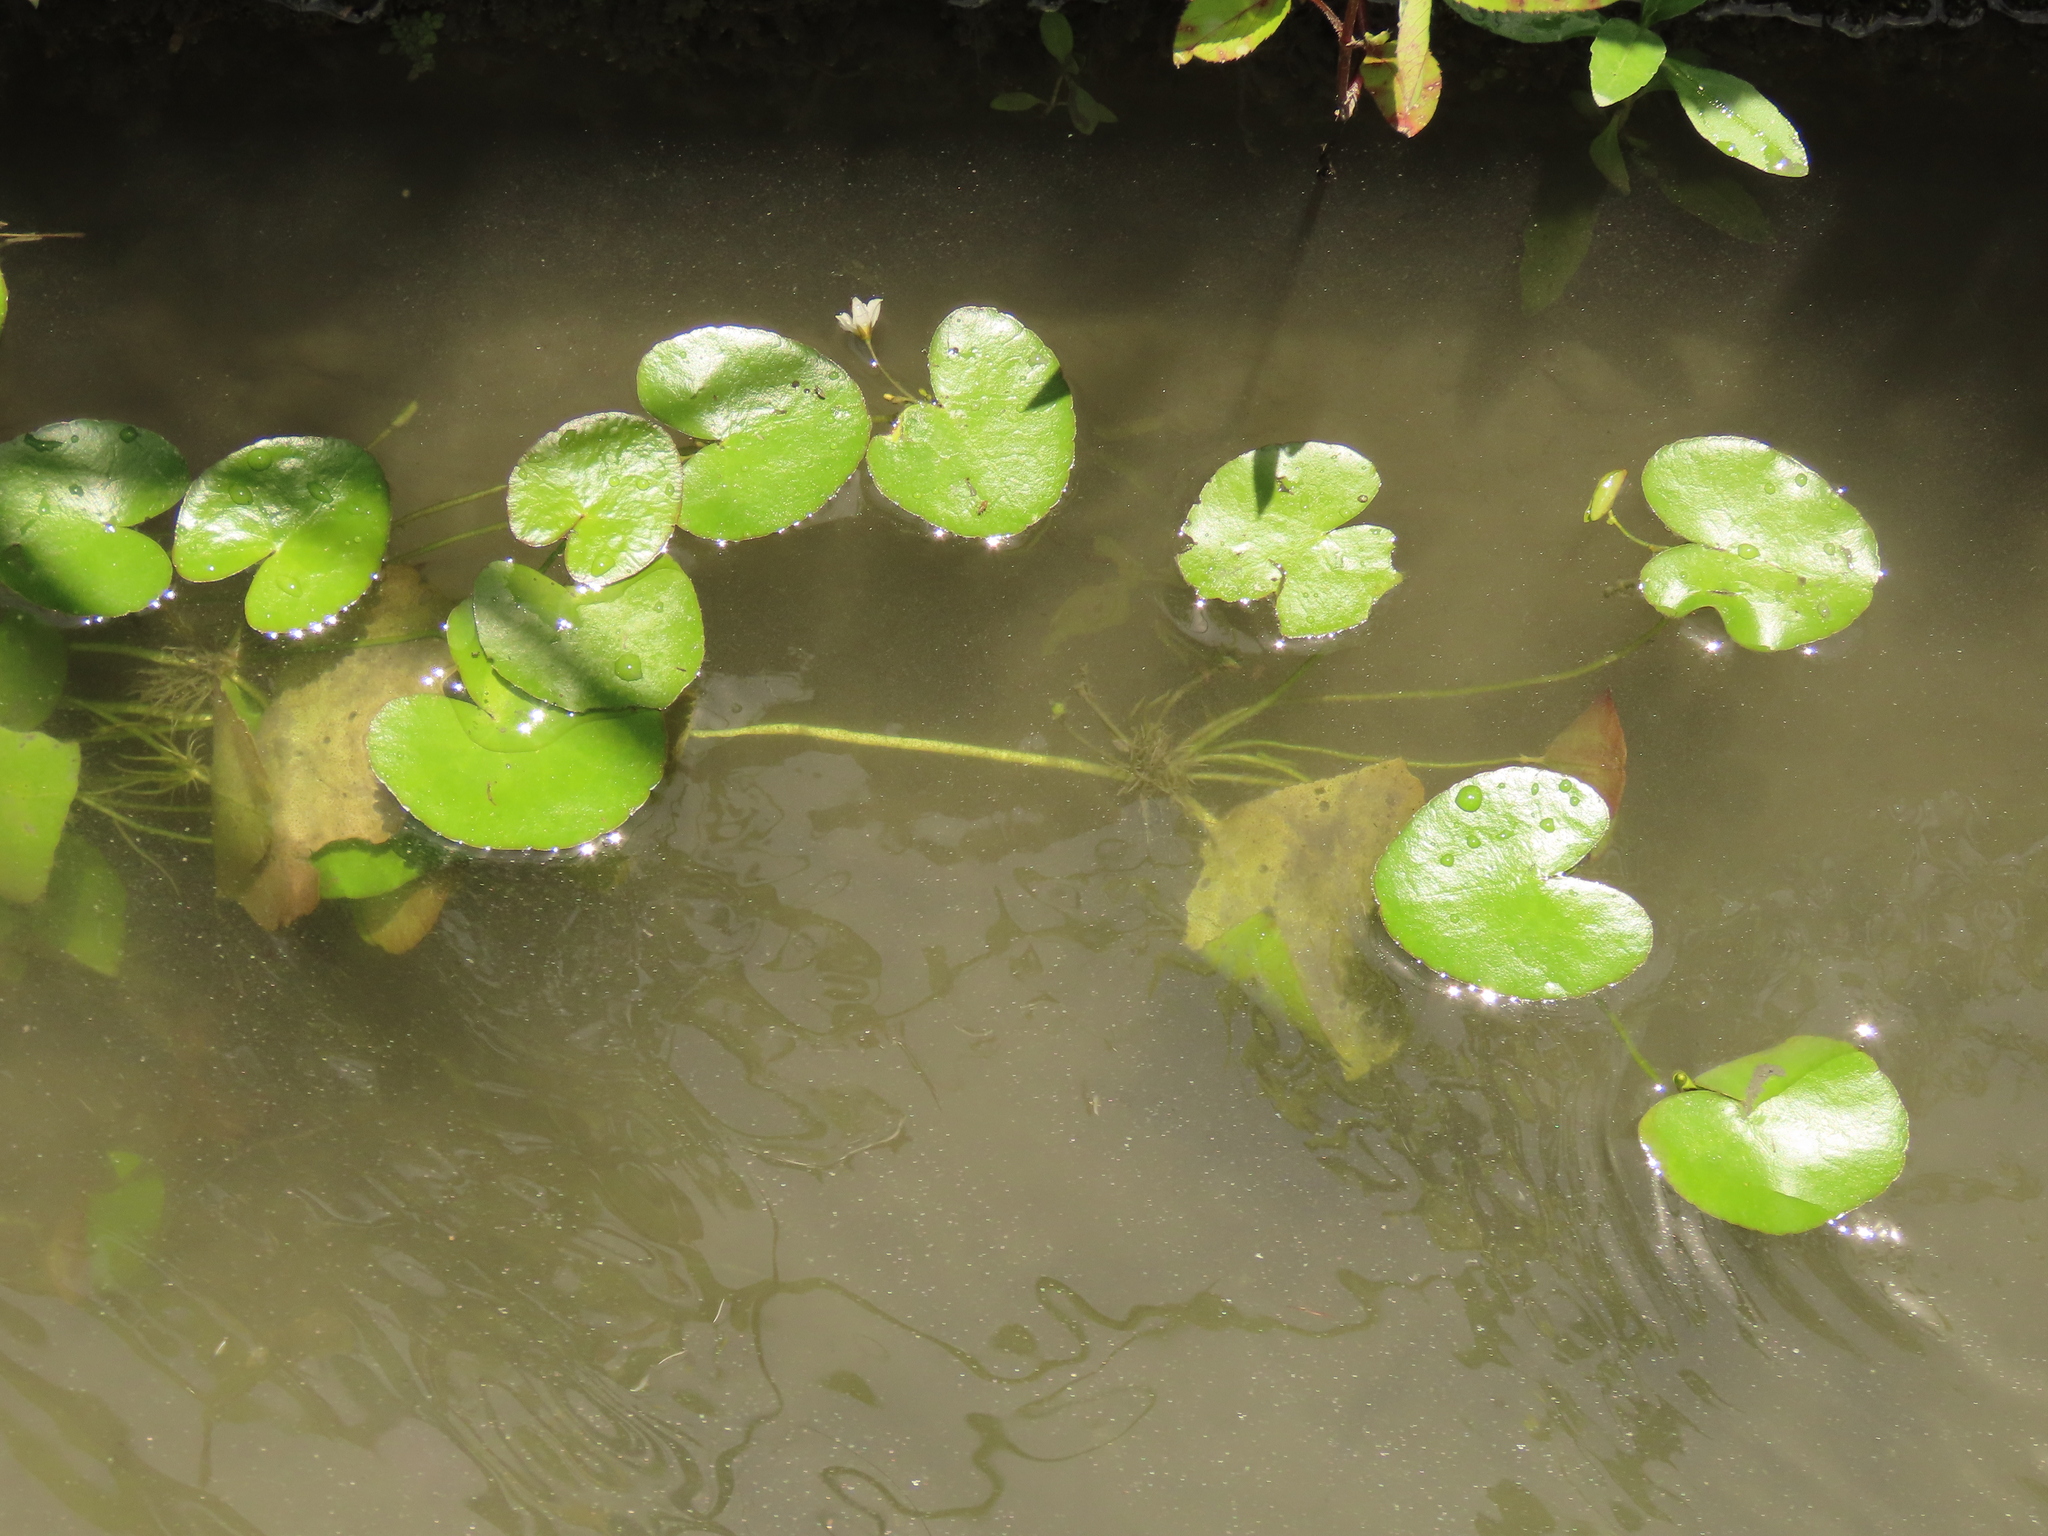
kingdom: Plantae
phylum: Tracheophyta
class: Magnoliopsida
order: Asterales
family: Menyanthaceae
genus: Nymphoides
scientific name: Nymphoides hydrophylla
